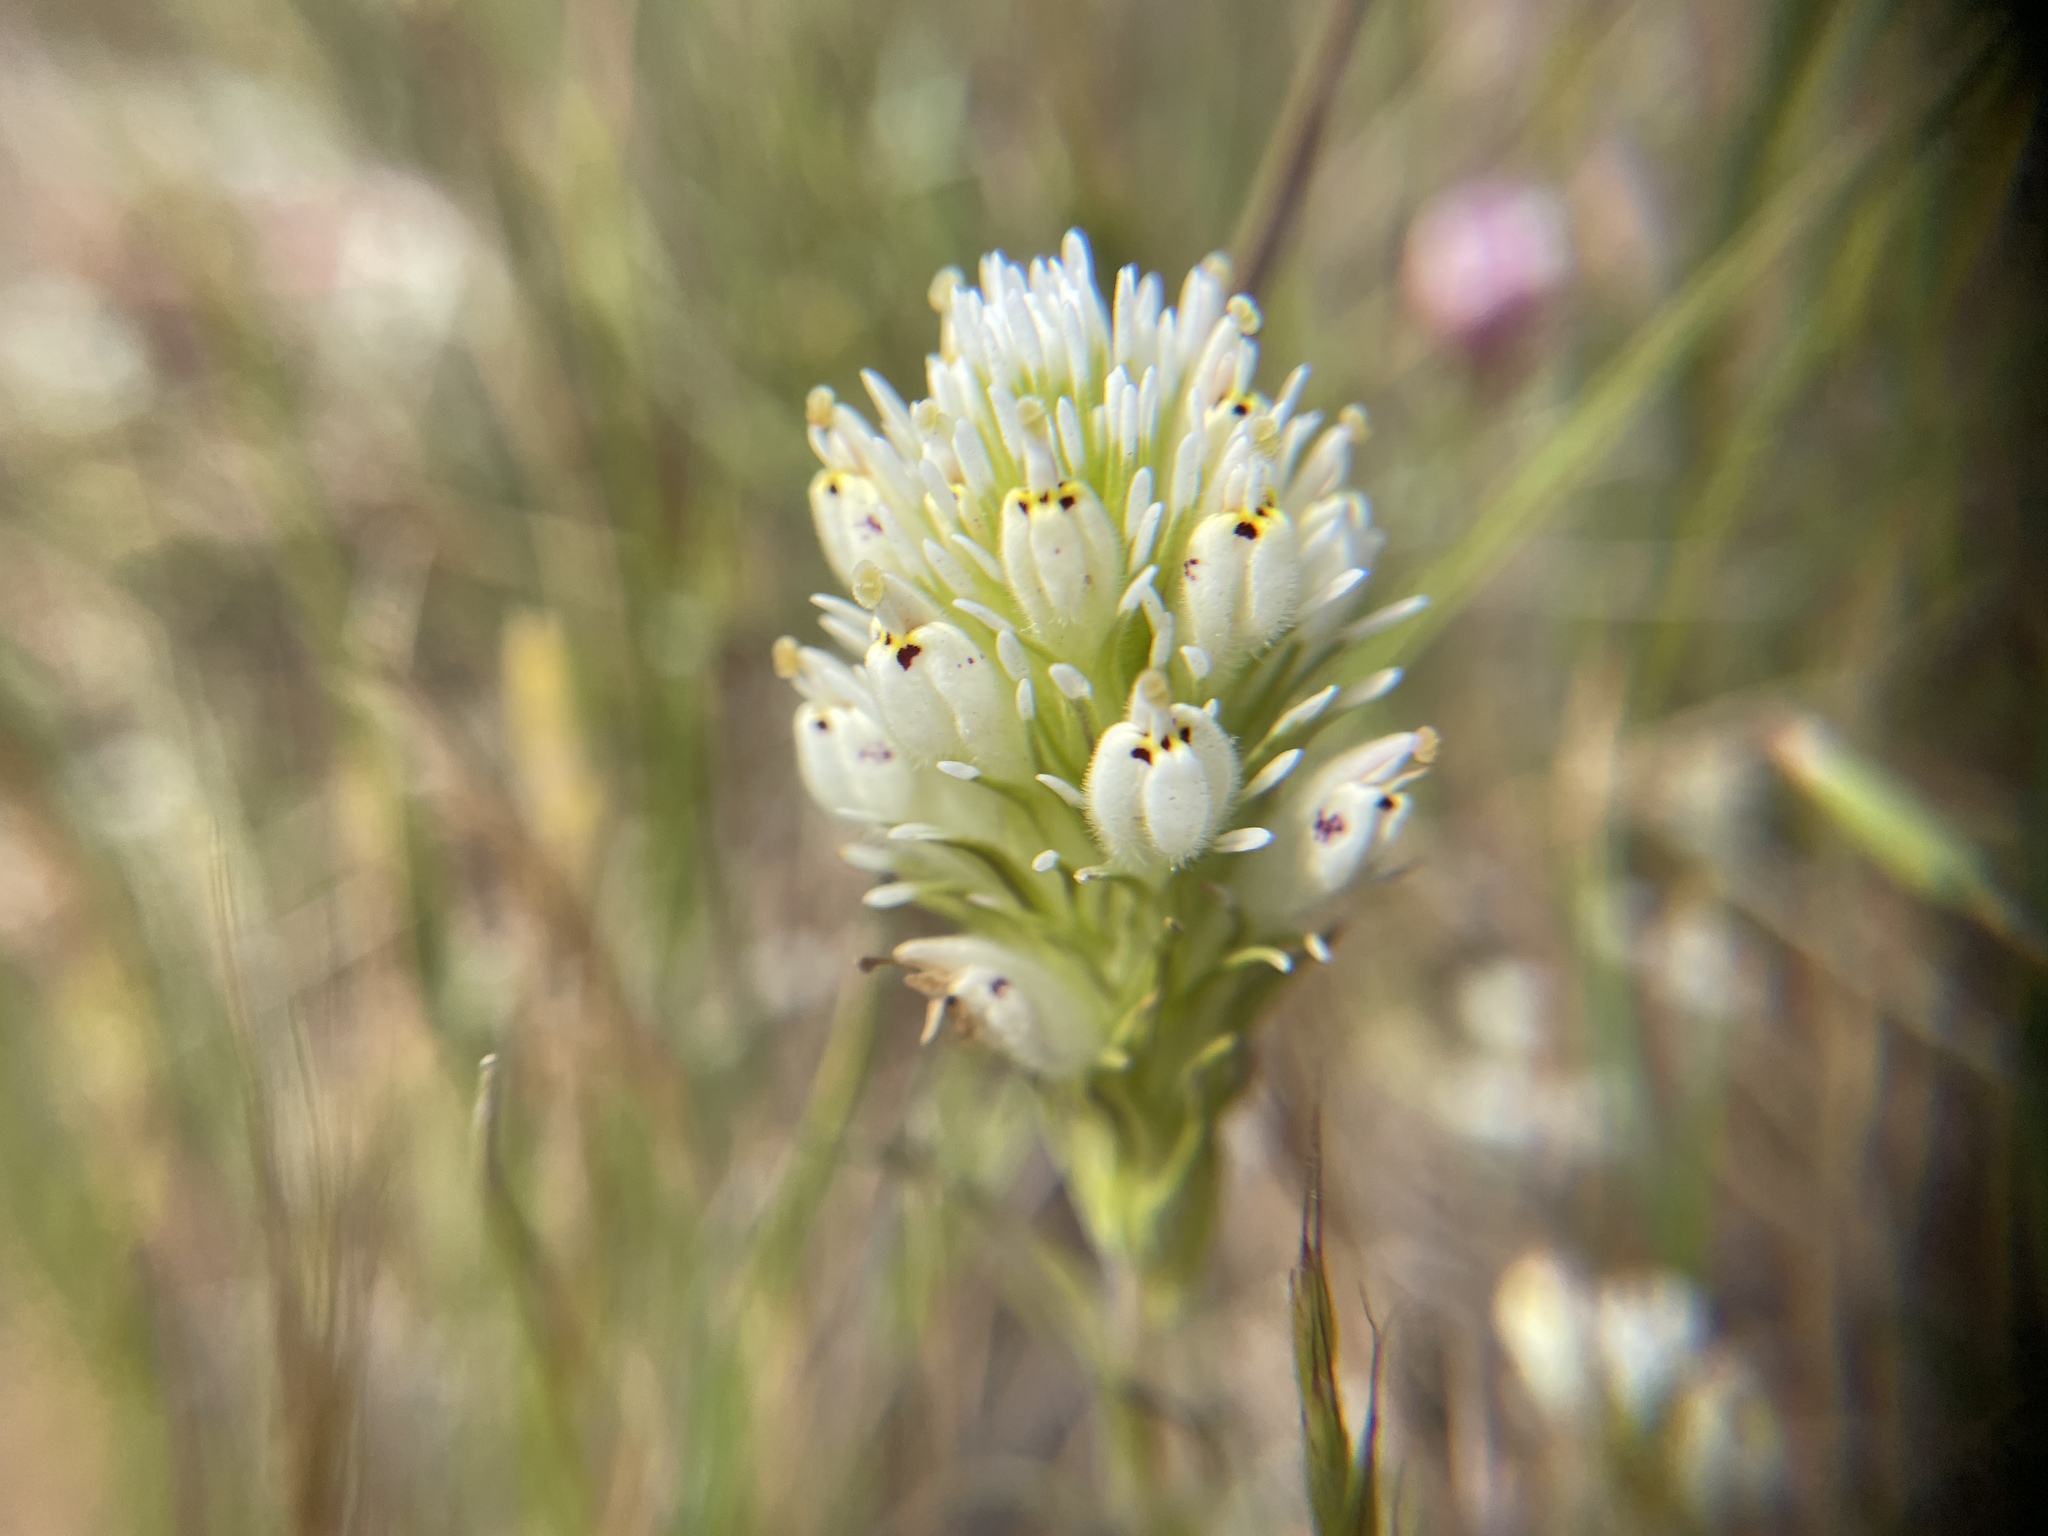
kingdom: Plantae
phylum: Tracheophyta
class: Magnoliopsida
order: Lamiales
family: Orobanchaceae
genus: Castilleja
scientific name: Castilleja densiflora
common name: Dense-flower indian paintbrush
